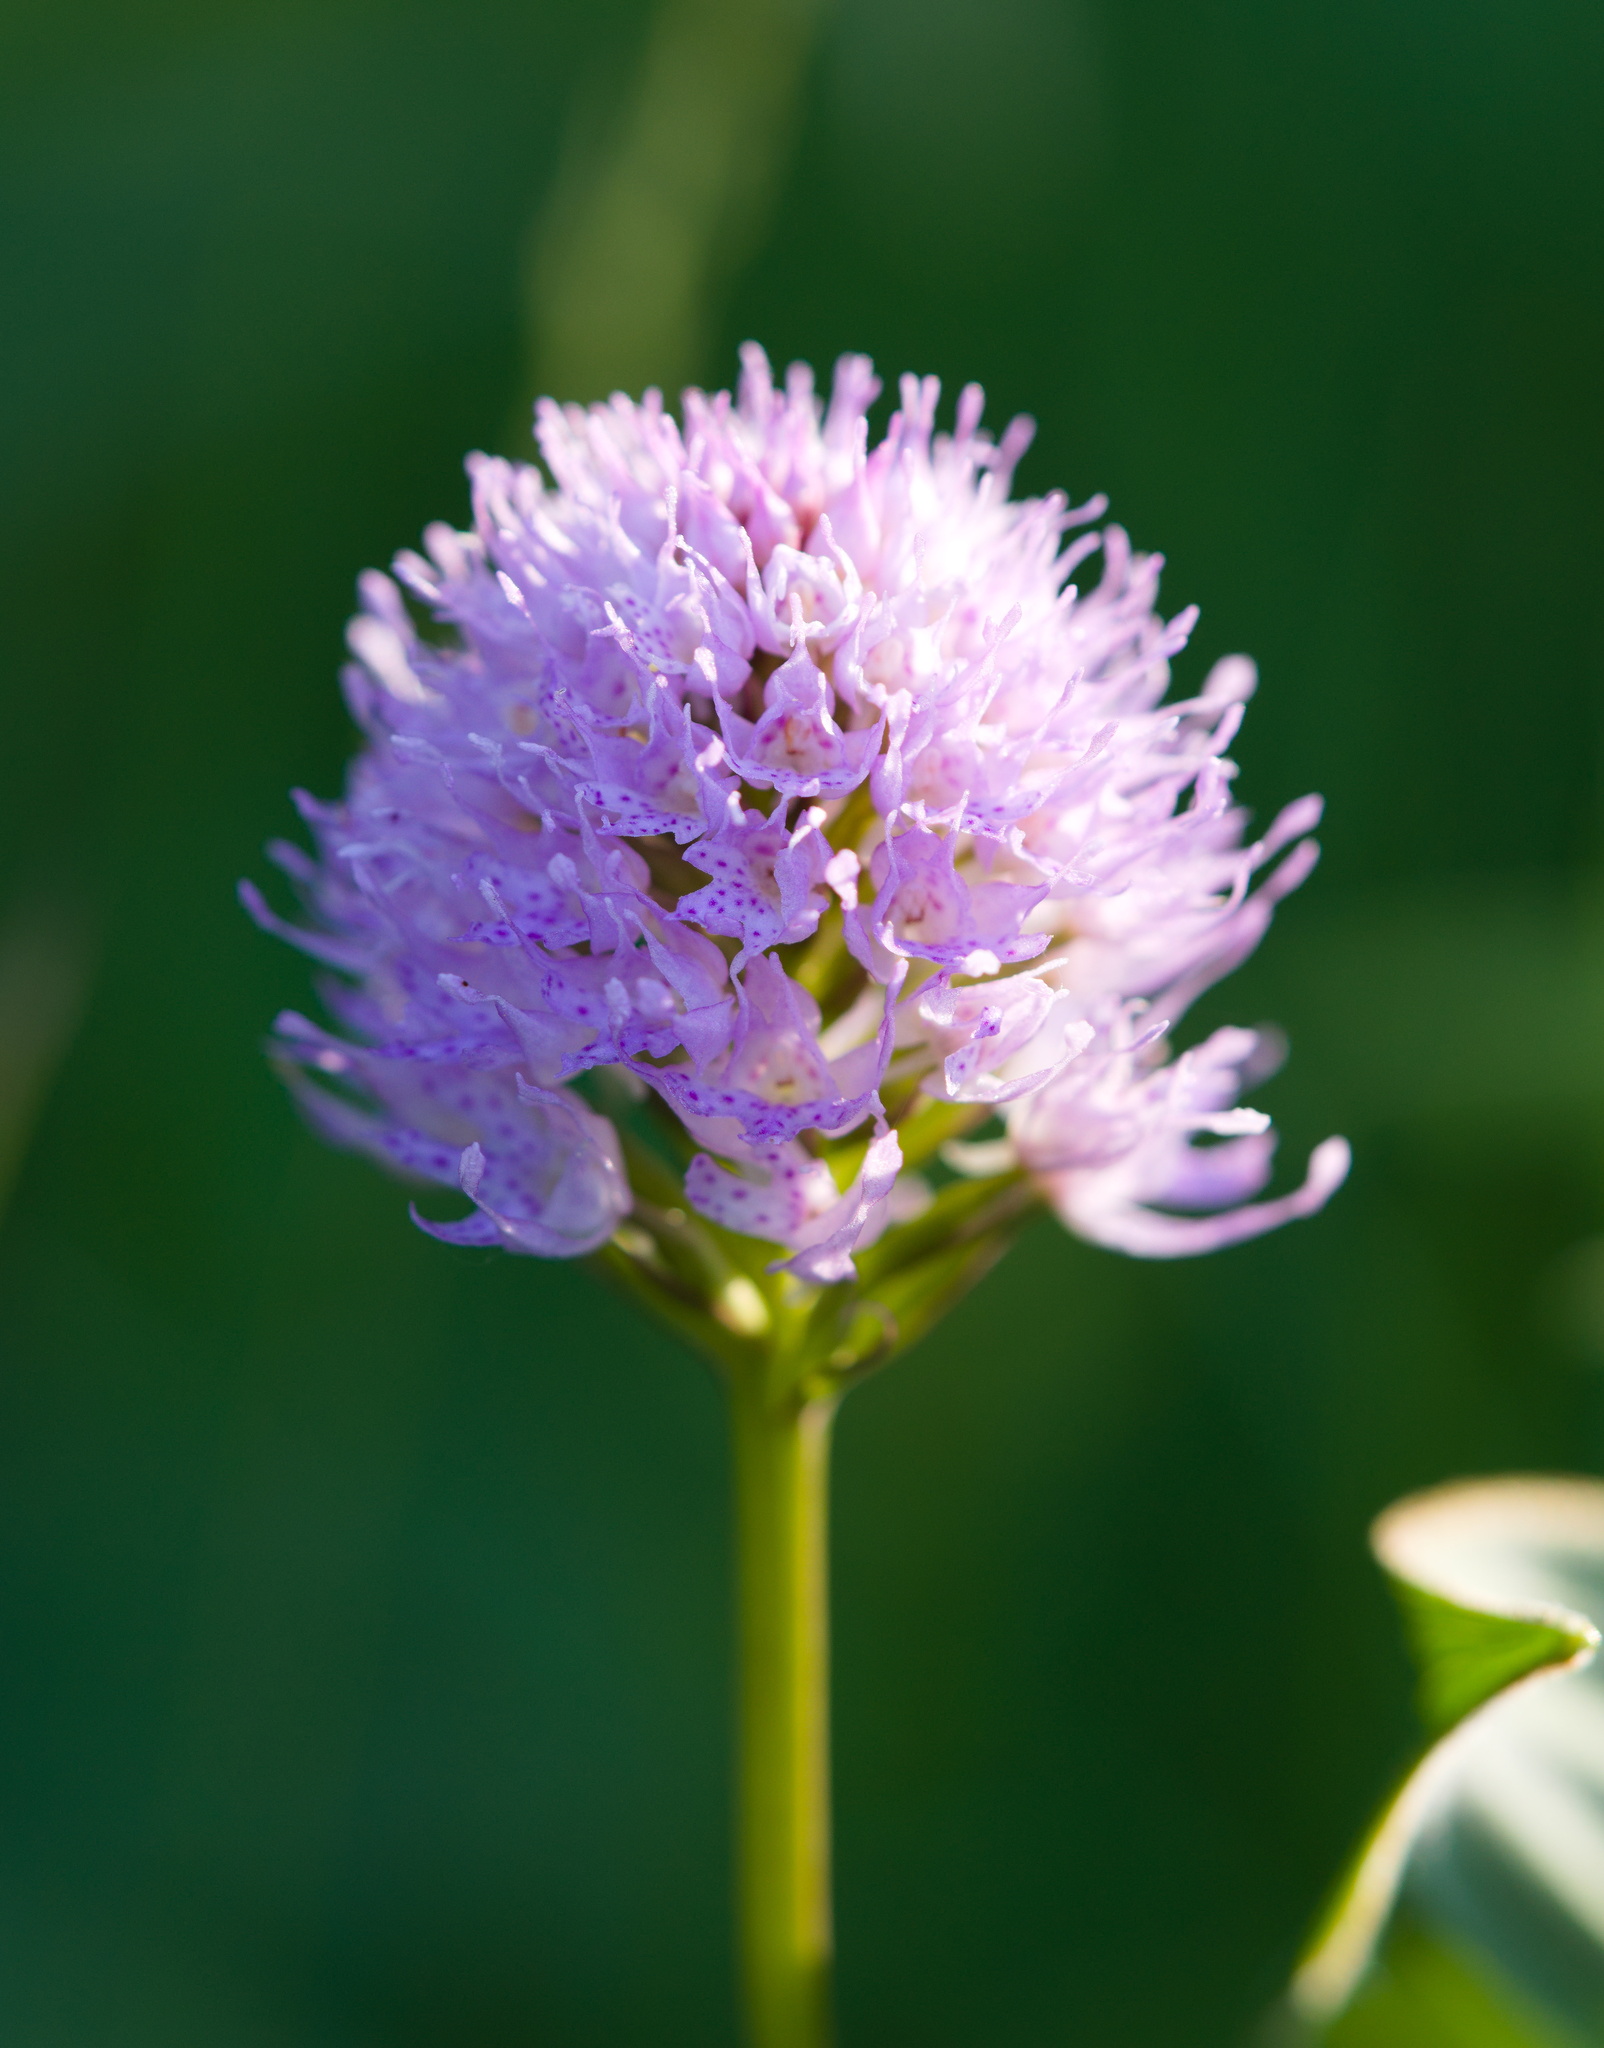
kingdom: Plantae
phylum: Tracheophyta
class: Liliopsida
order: Asparagales
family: Orchidaceae
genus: Traunsteinera
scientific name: Traunsteinera globosa
